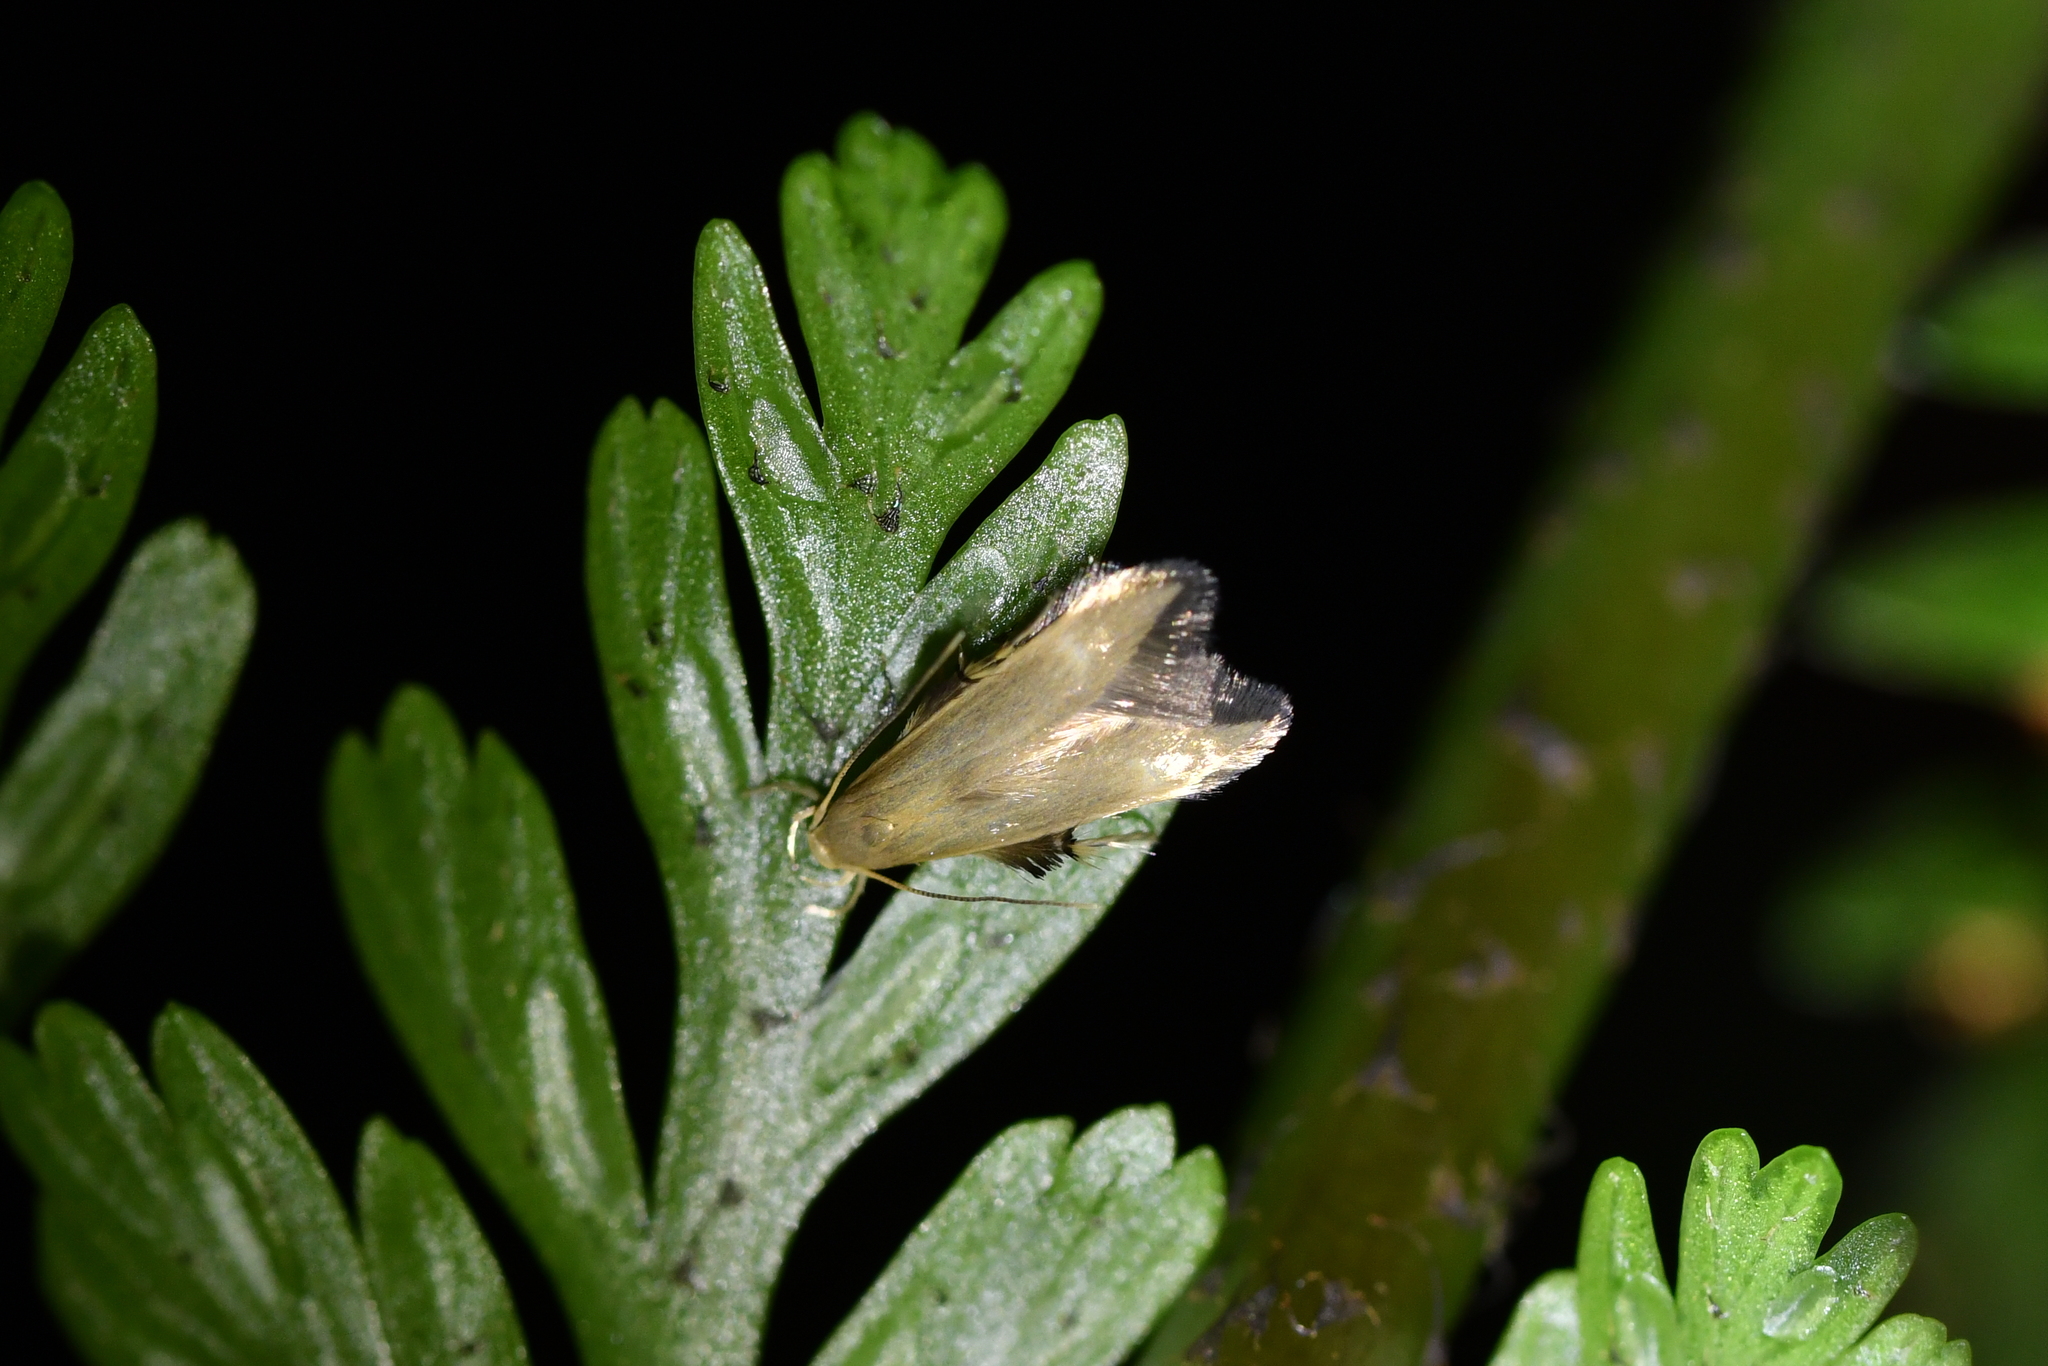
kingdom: Animalia
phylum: Arthropoda
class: Insecta
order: Lepidoptera
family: Stathmopodidae
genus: Thylacosceles
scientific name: Thylacosceles acridomima
